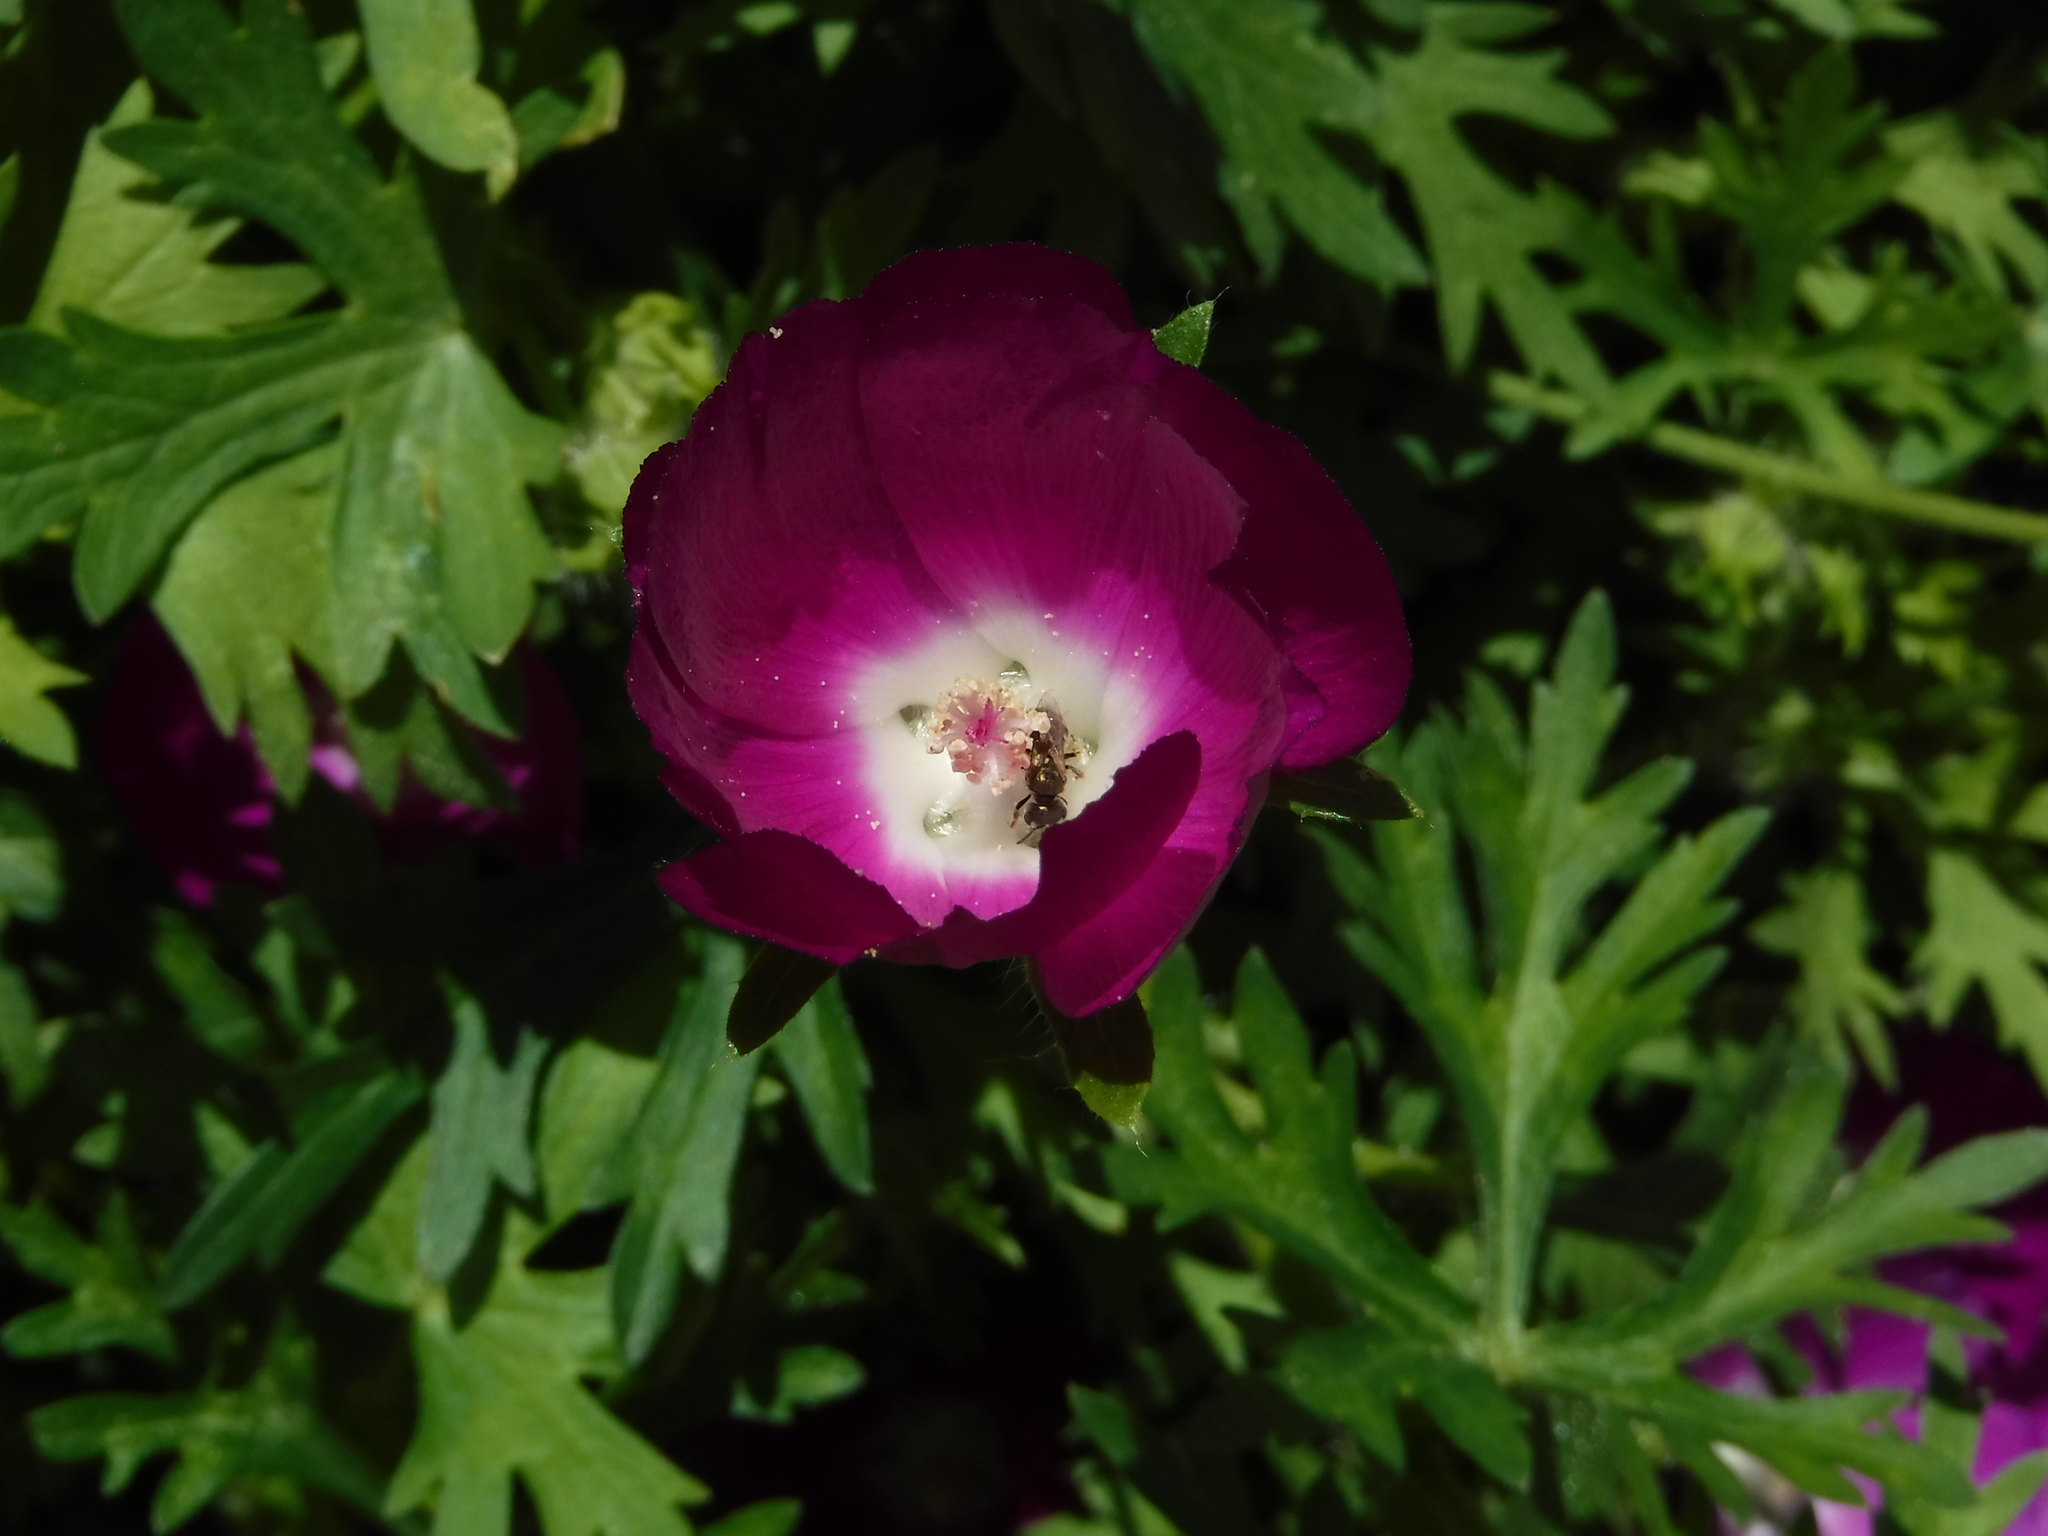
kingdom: Animalia
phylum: Arthropoda
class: Insecta
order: Hymenoptera
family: Halictidae
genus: Halictus
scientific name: Halictus tripartitus
